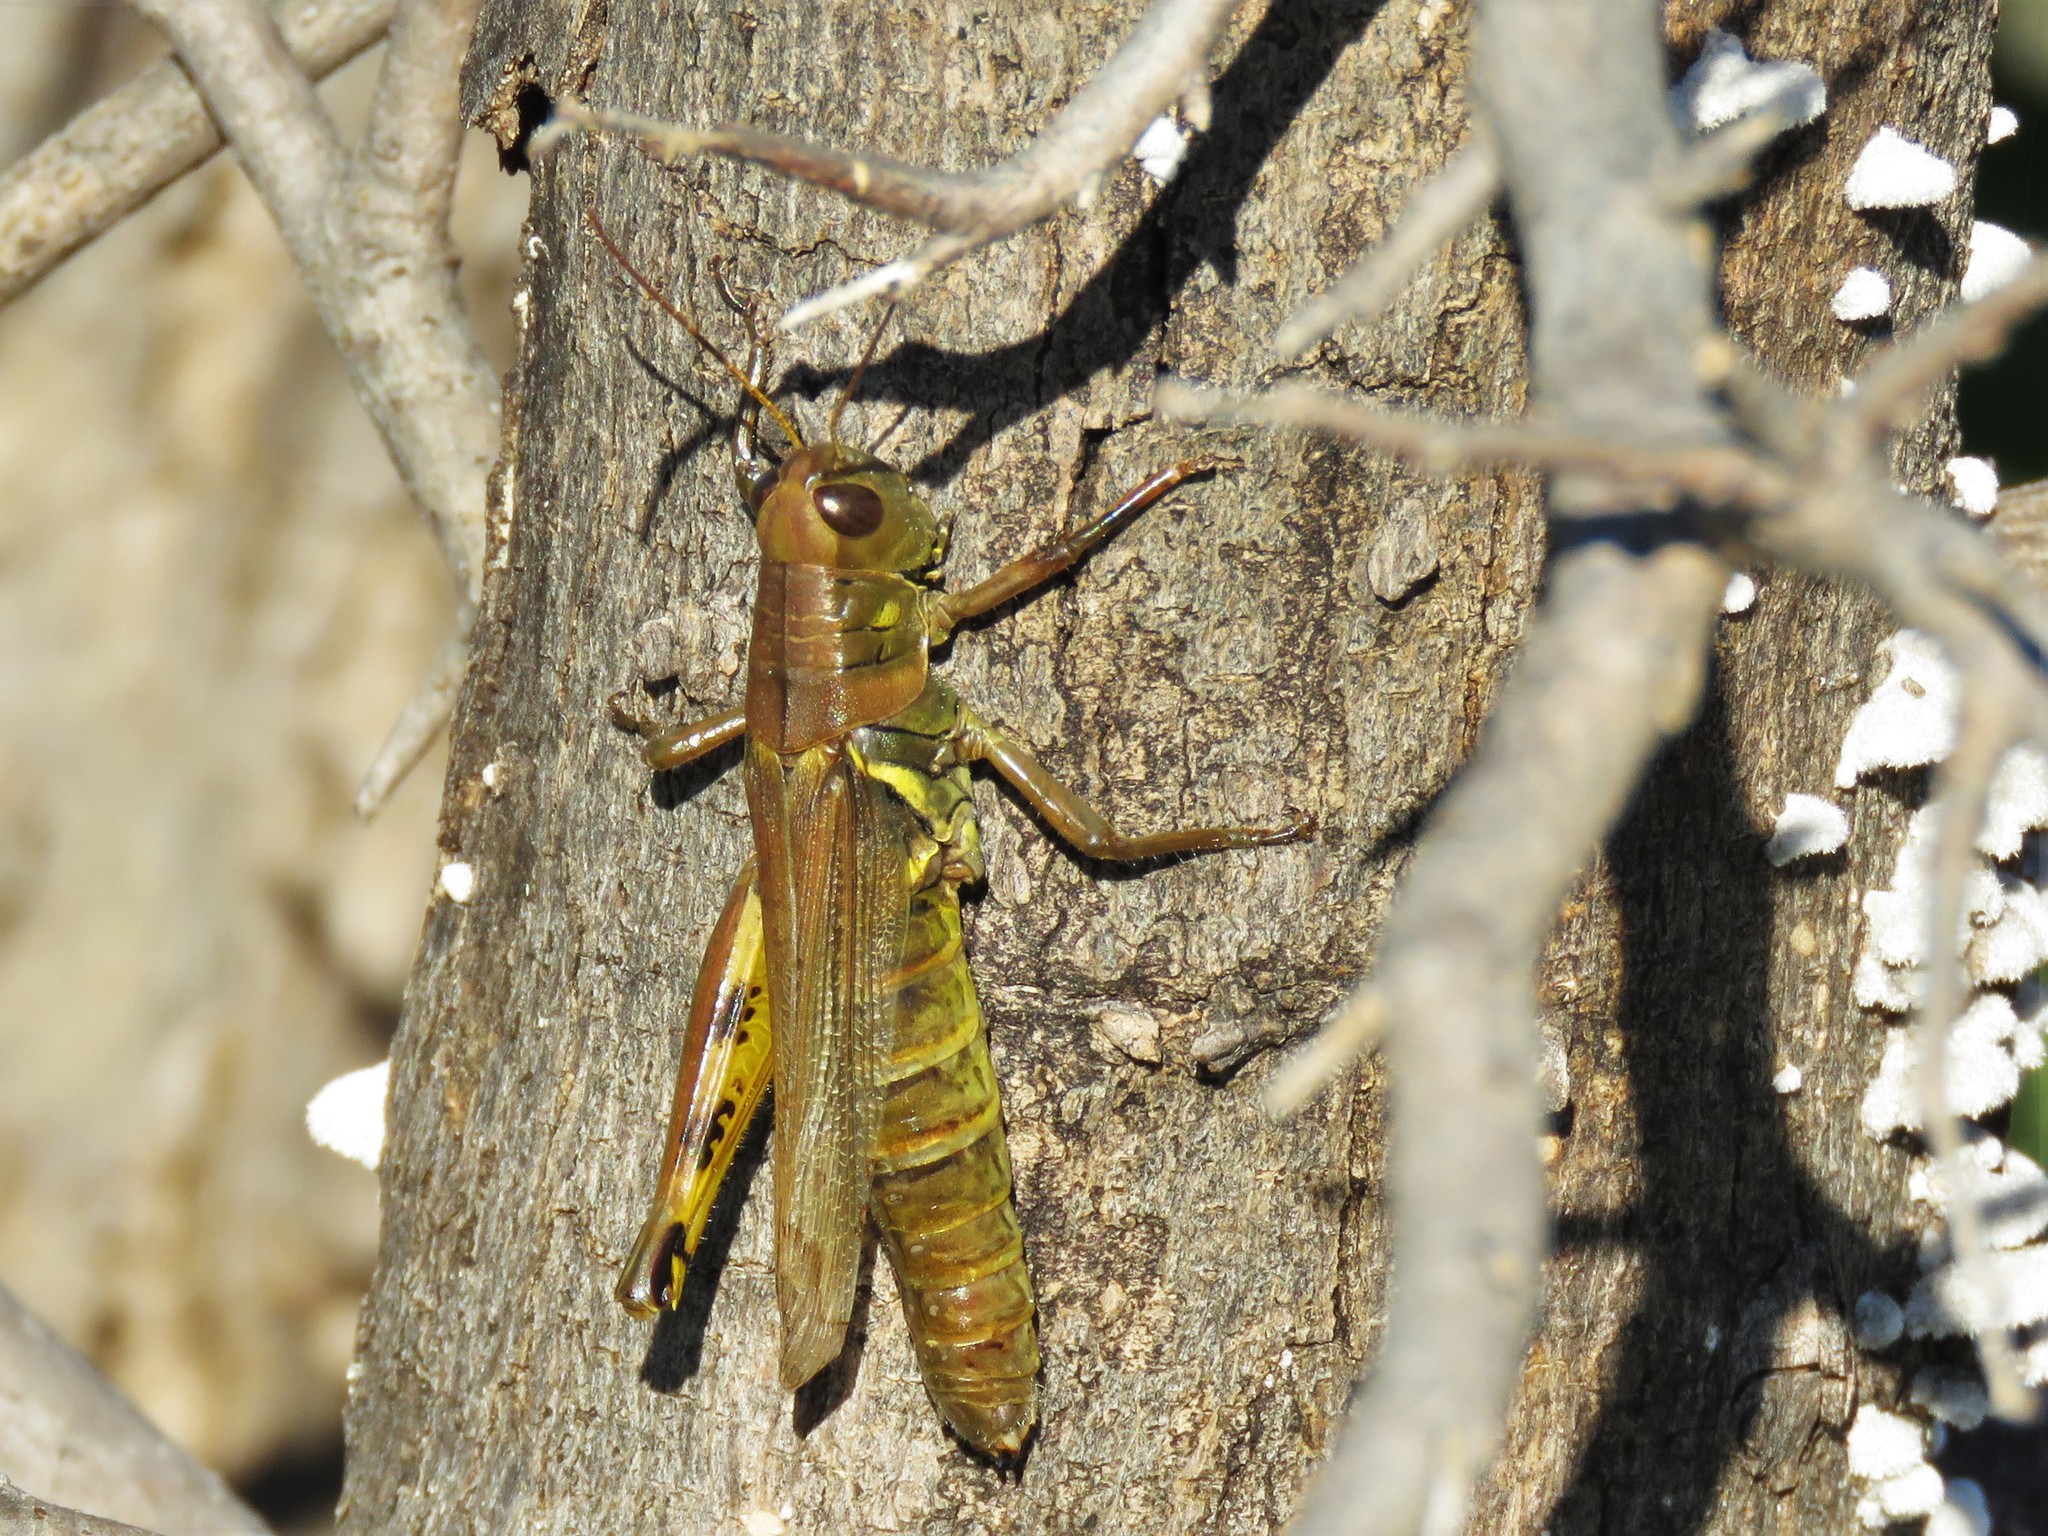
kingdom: Animalia
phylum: Arthropoda
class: Insecta
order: Orthoptera
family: Acrididae
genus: Melanoplus
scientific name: Melanoplus differentialis
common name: Differential grasshopper
